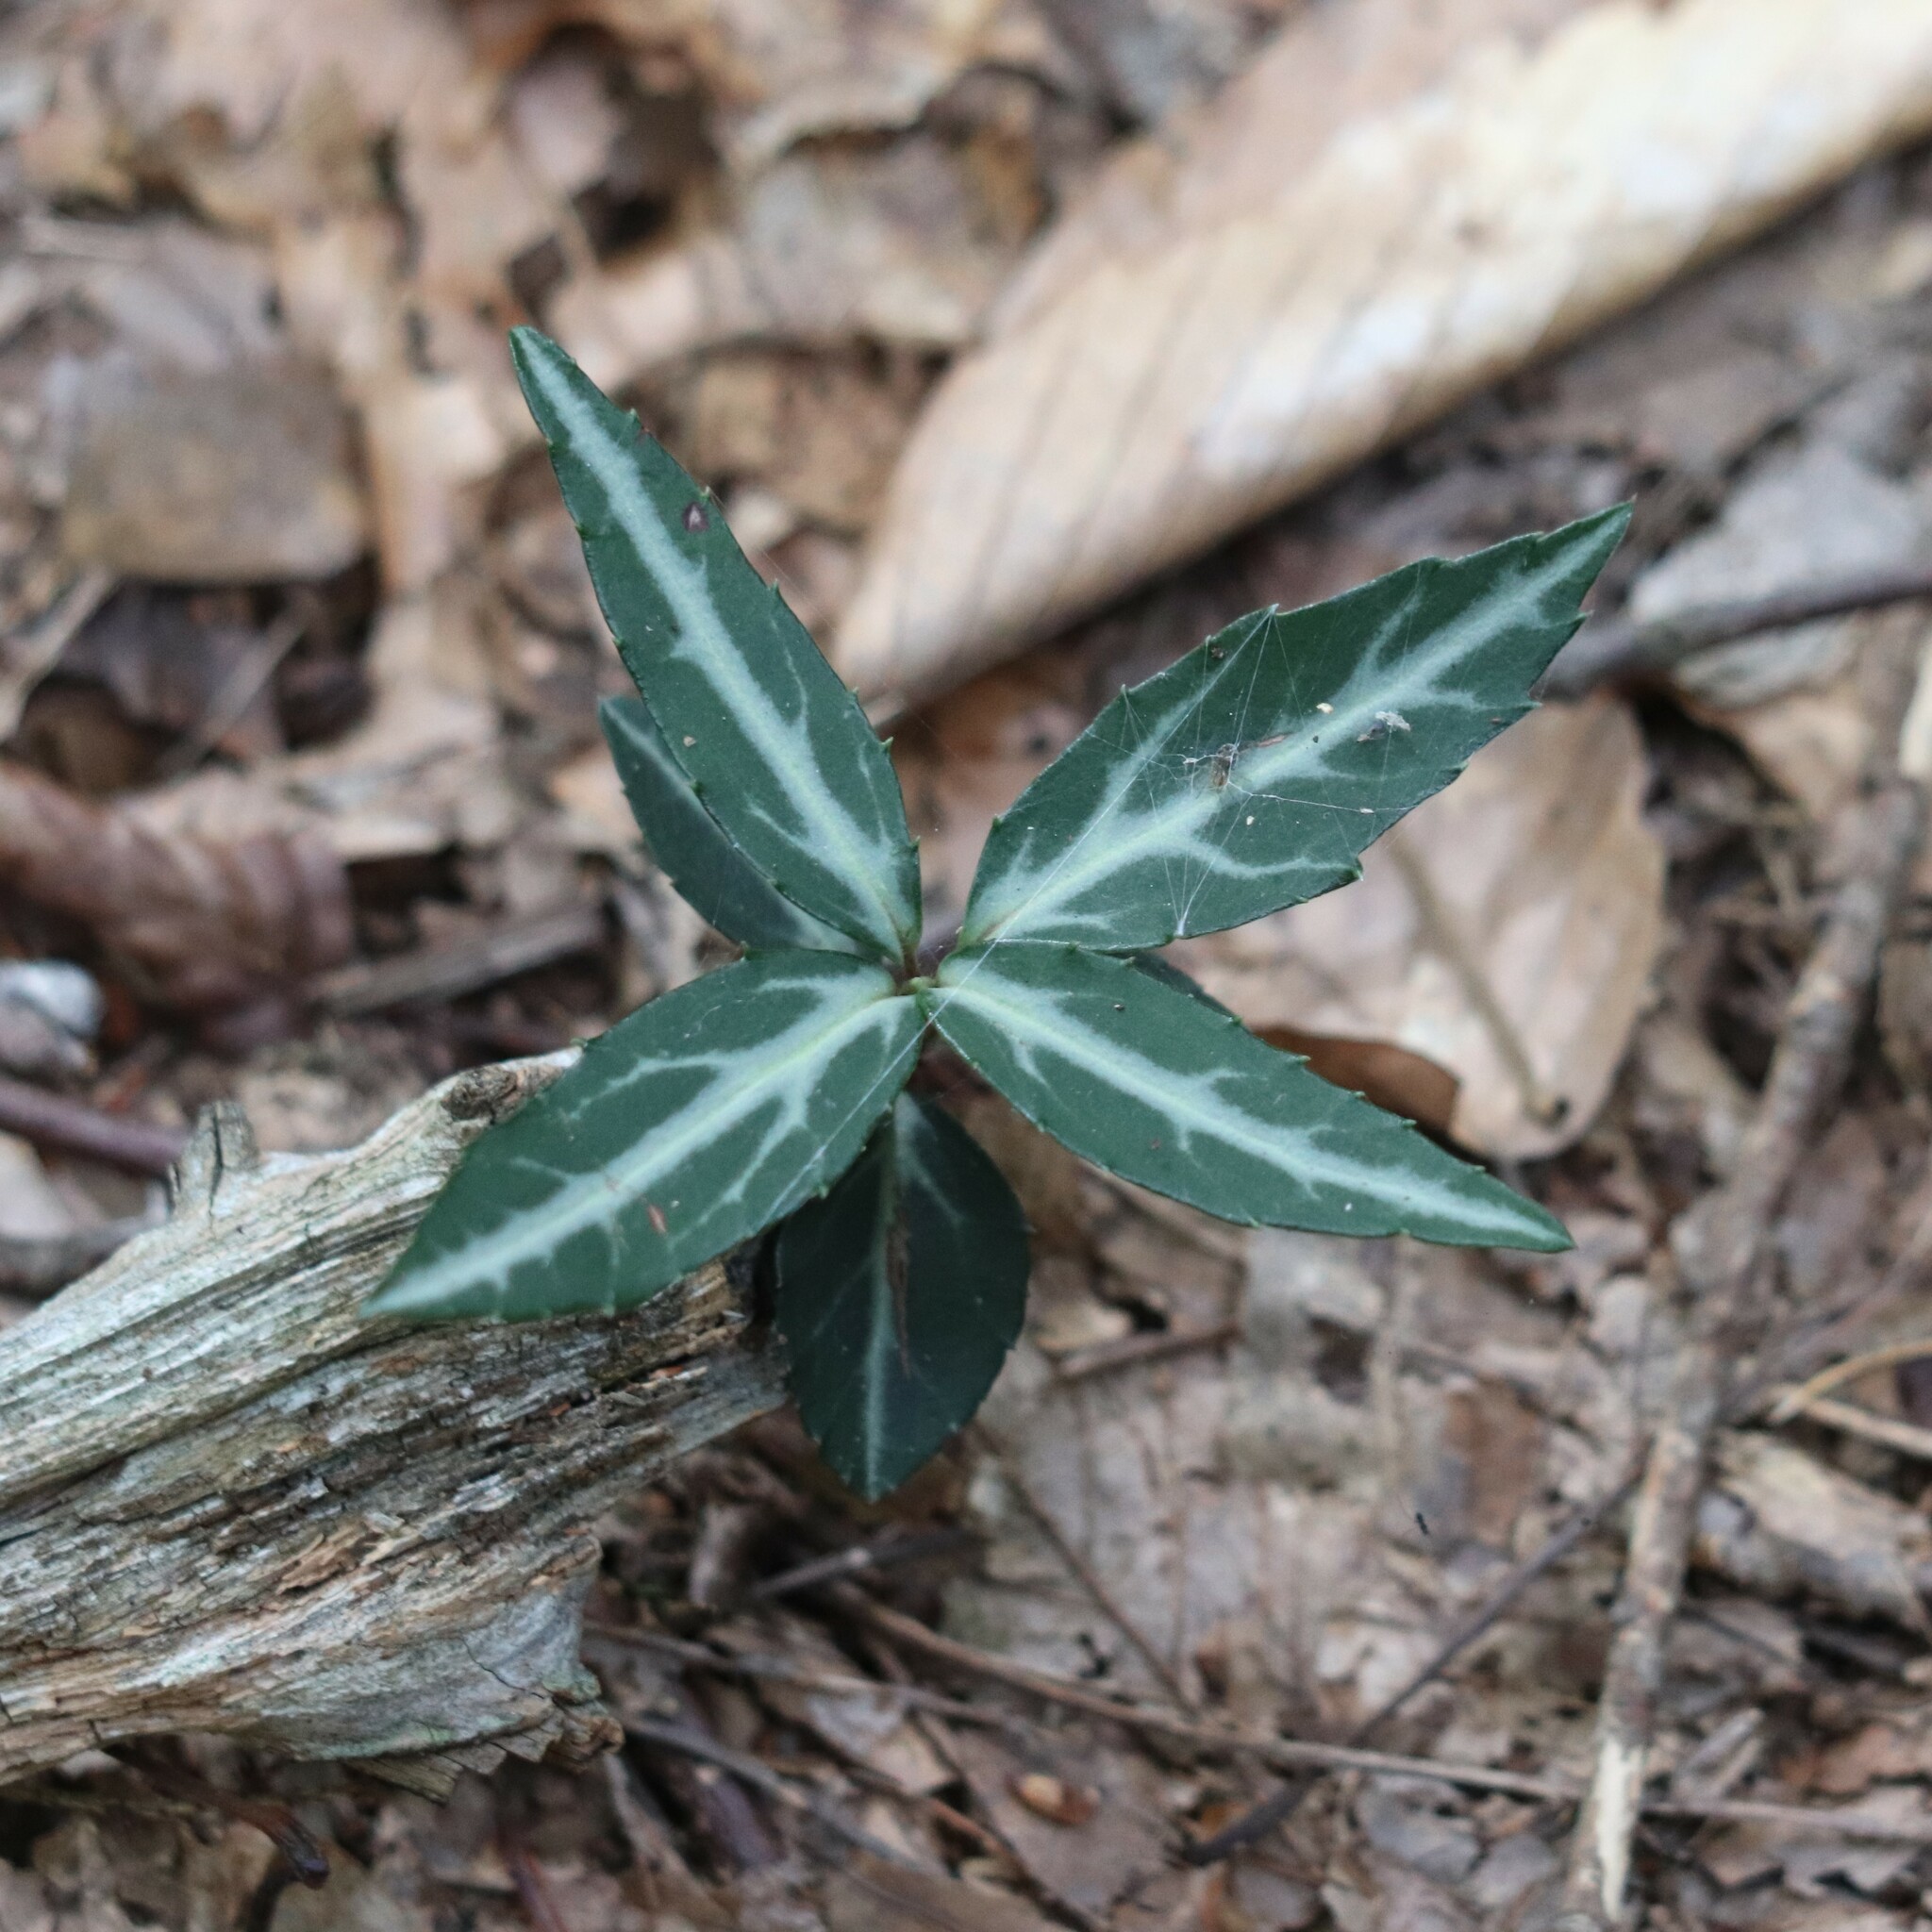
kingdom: Plantae
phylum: Tracheophyta
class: Magnoliopsida
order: Ericales
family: Ericaceae
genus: Chimaphila
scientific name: Chimaphila maculata
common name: Spotted pipsissewa
